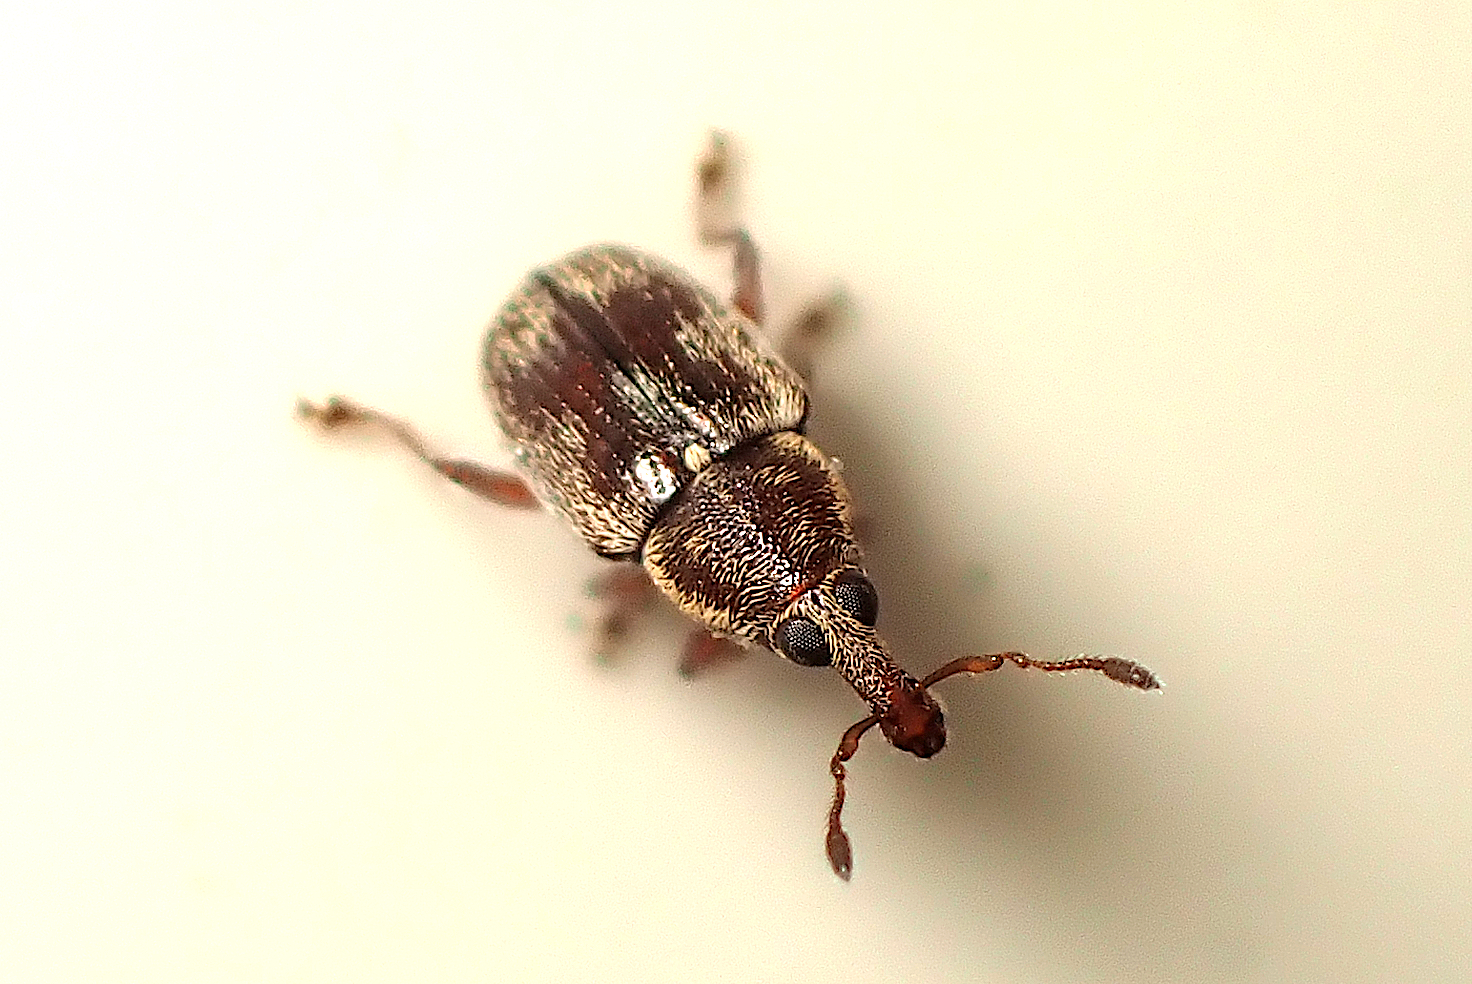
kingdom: Animalia
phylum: Arthropoda
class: Insecta
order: Coleoptera
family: Curculionidae
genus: Neomycta
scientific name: Neomycta rubida
